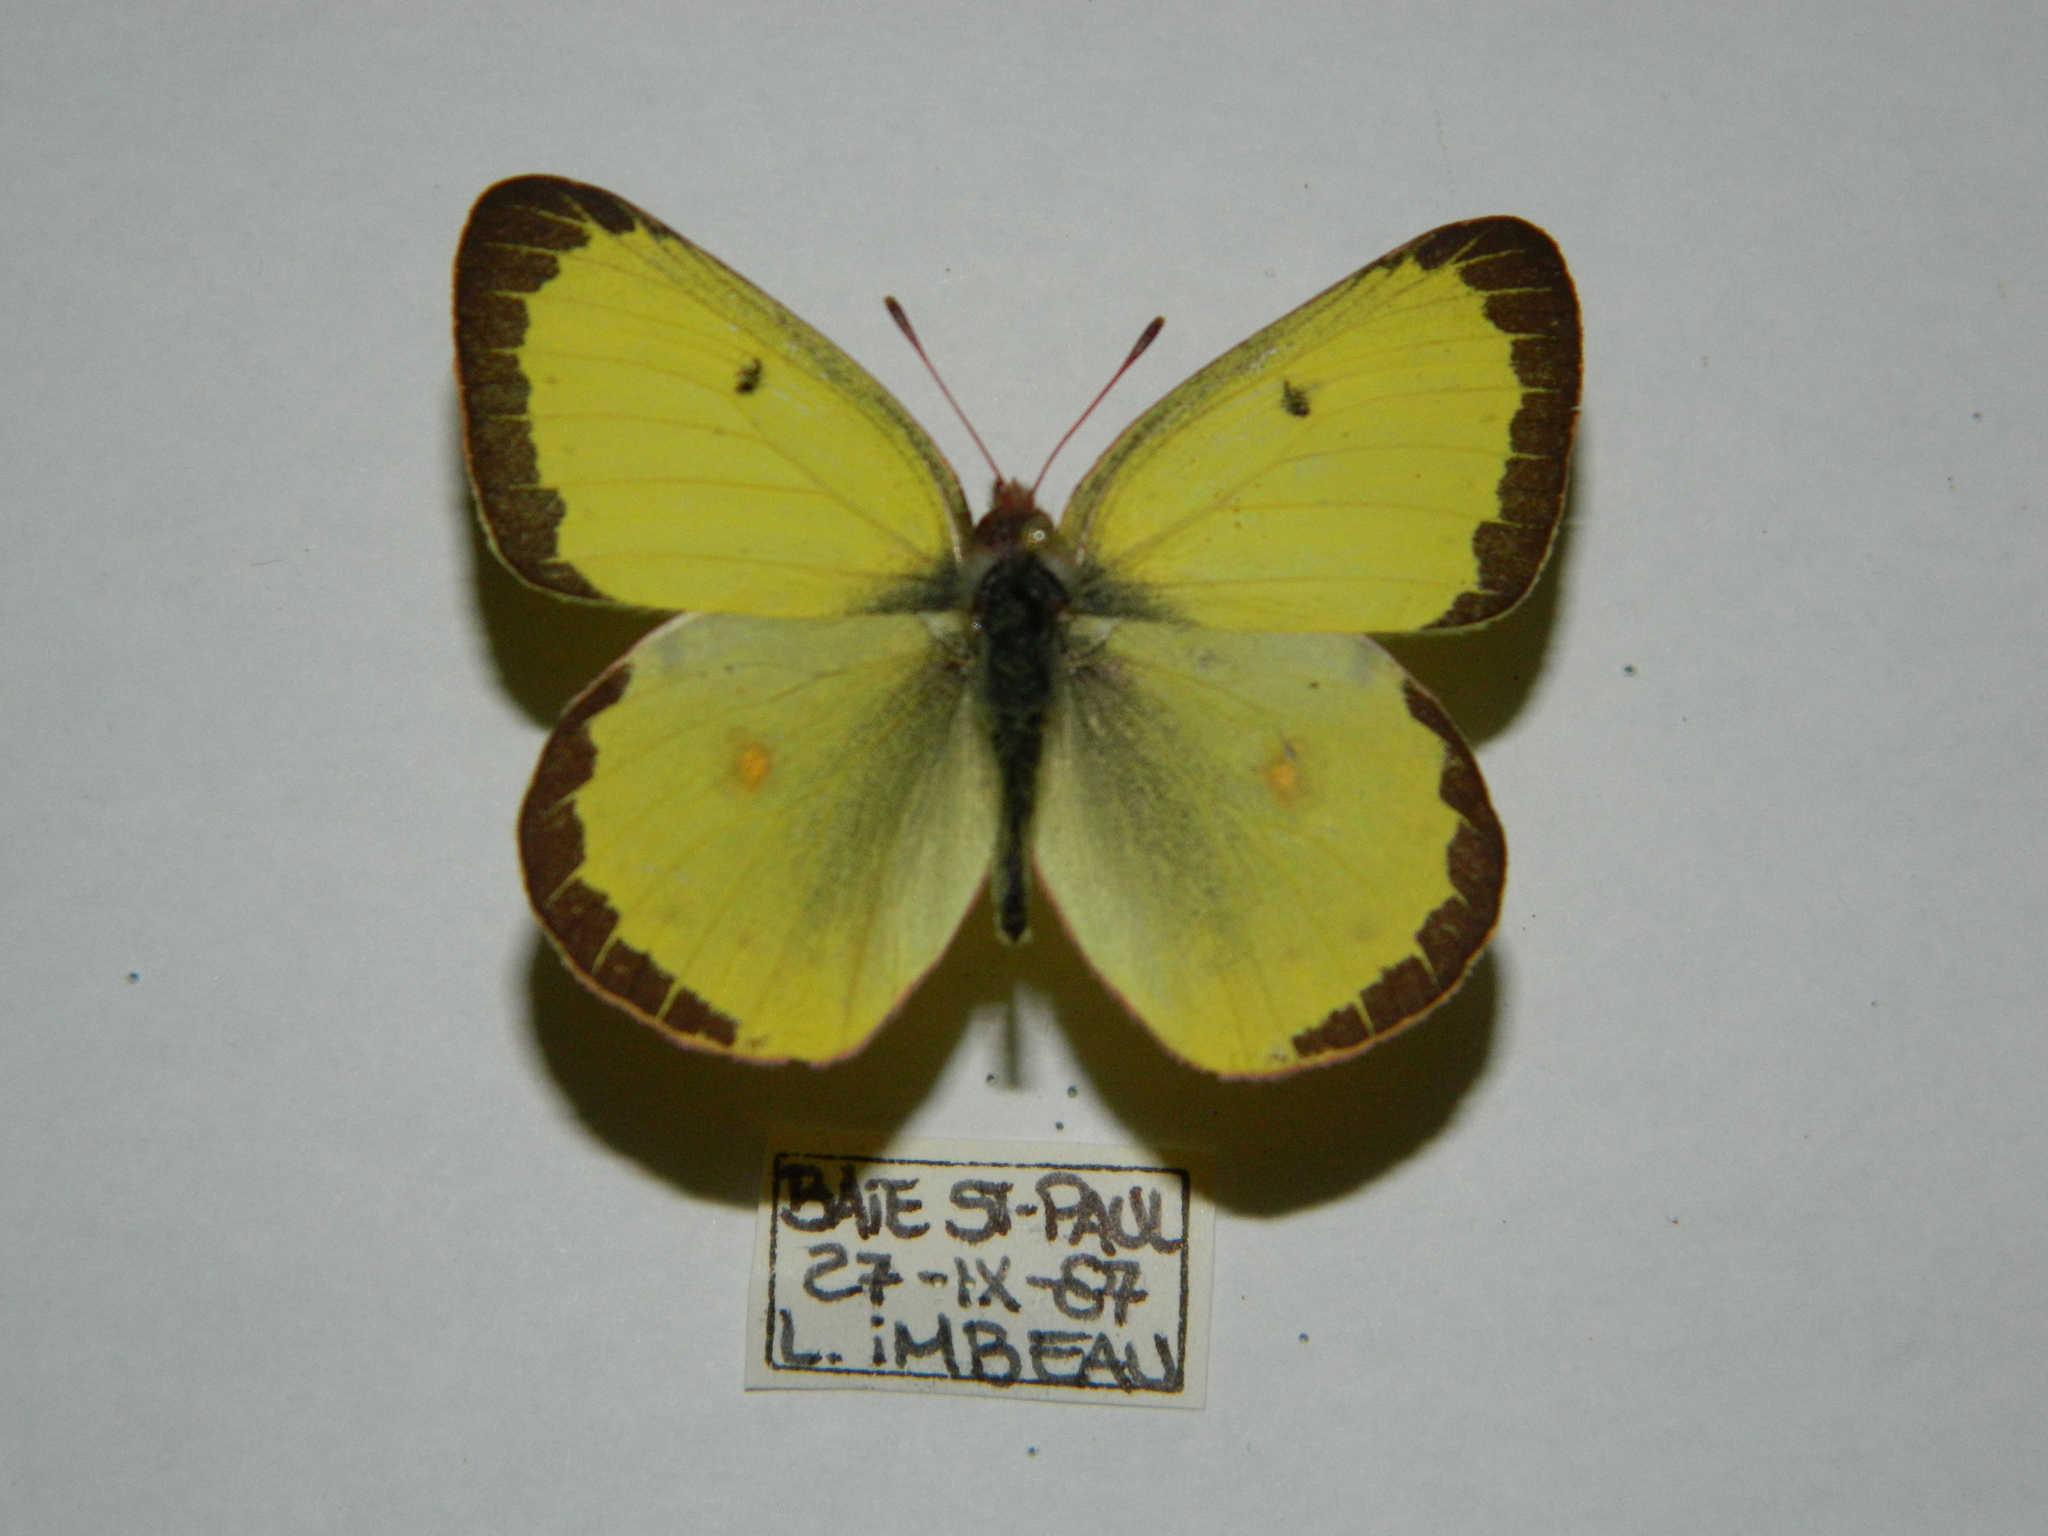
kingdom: Animalia
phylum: Arthropoda
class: Insecta
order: Lepidoptera
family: Pieridae
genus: Colias
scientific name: Colias philodice
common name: Clouded sulphur
